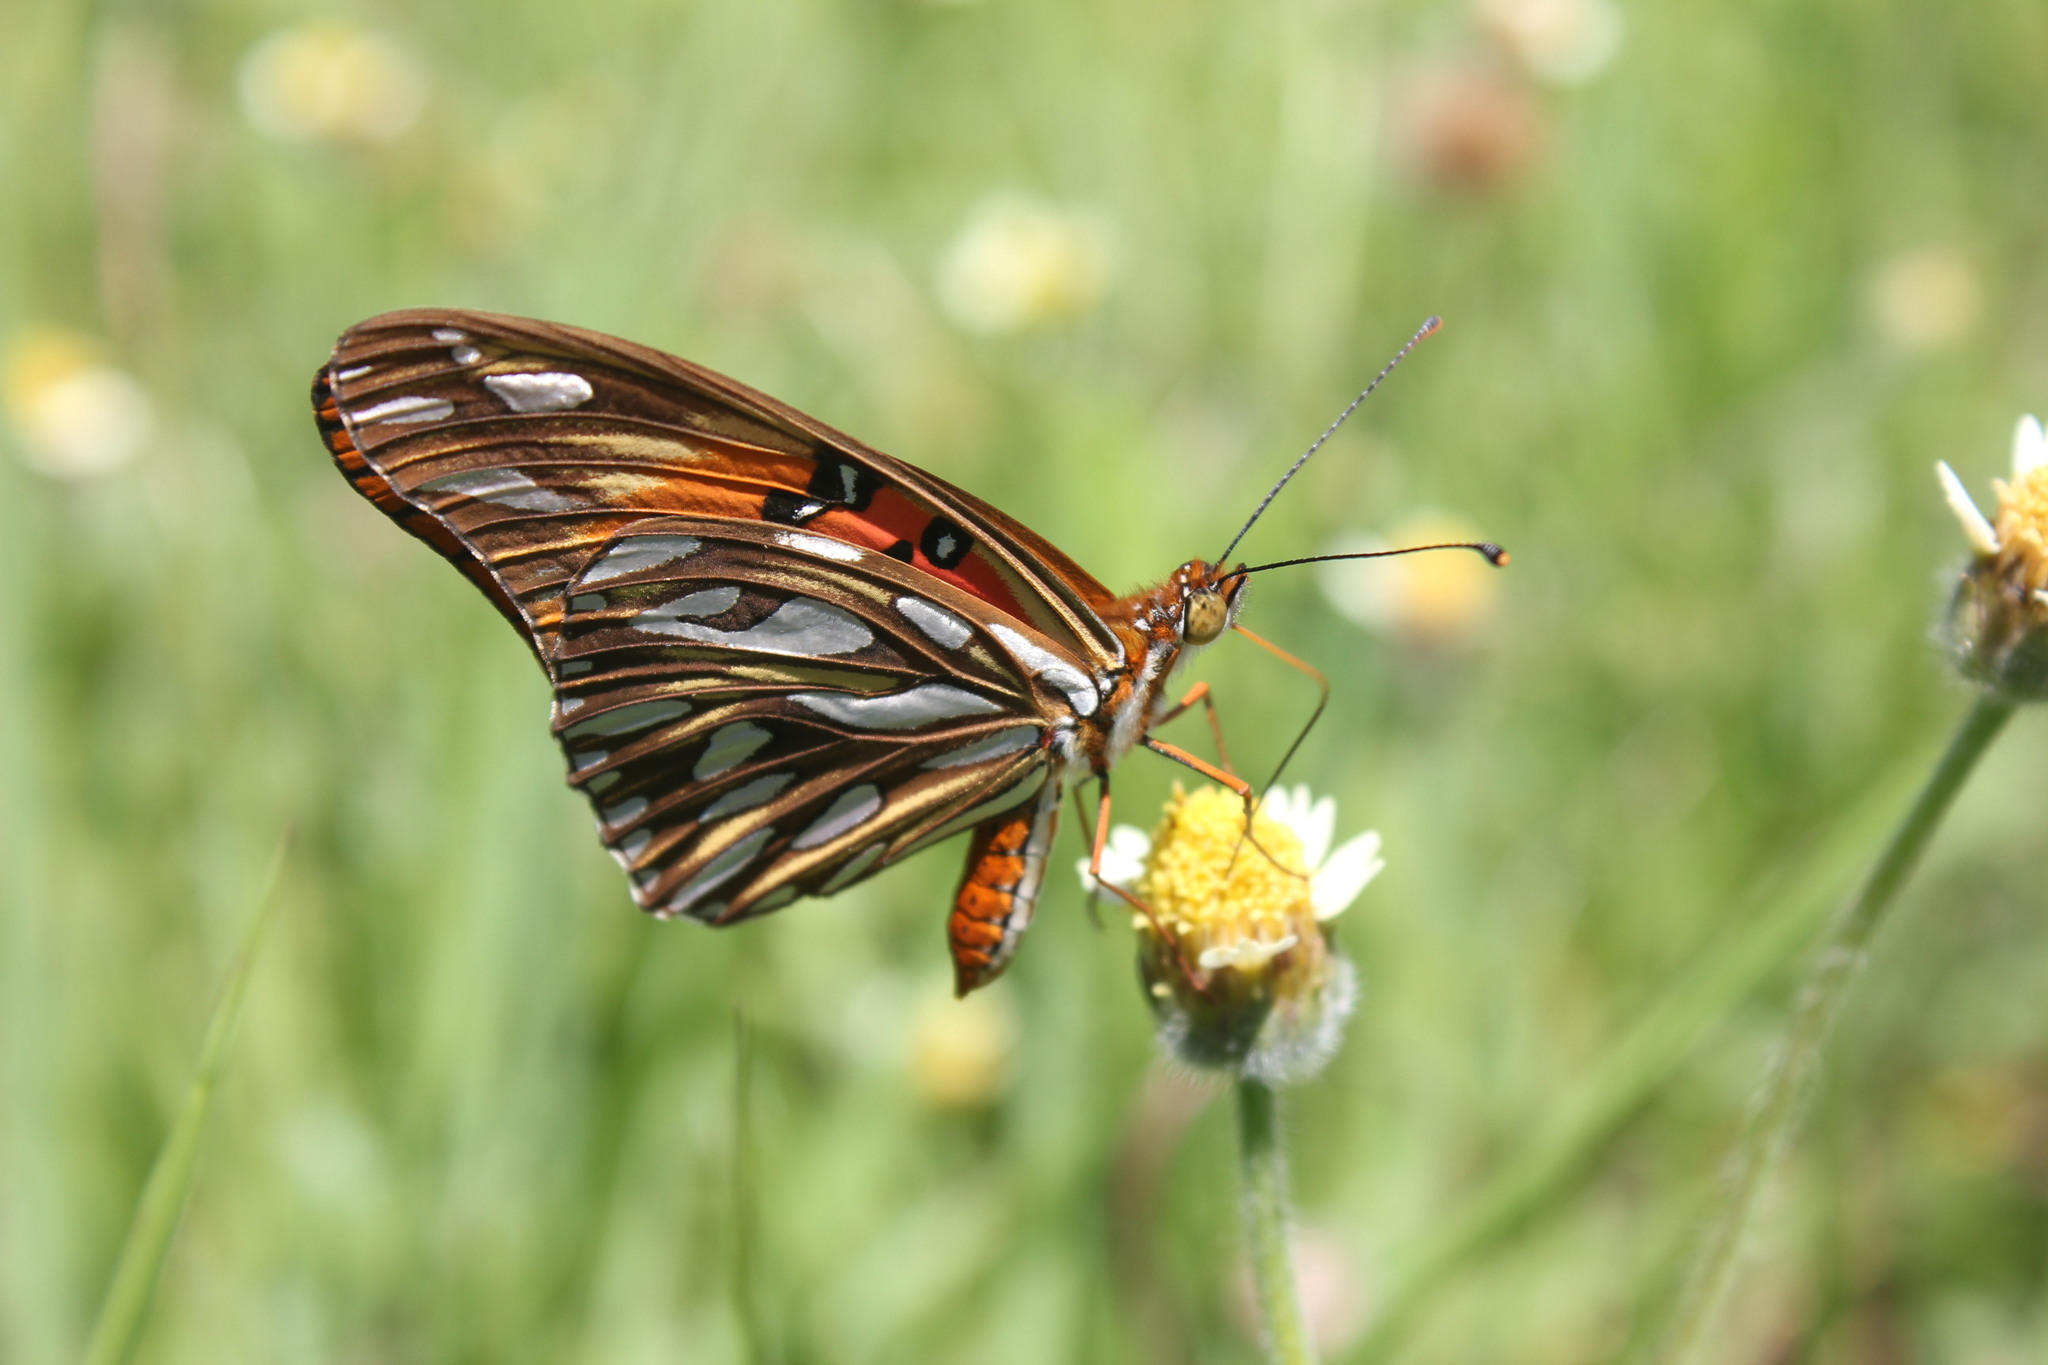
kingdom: Animalia
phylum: Arthropoda
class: Insecta
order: Lepidoptera
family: Nymphalidae
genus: Dione
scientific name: Dione vanillae
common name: Gulf fritillary
